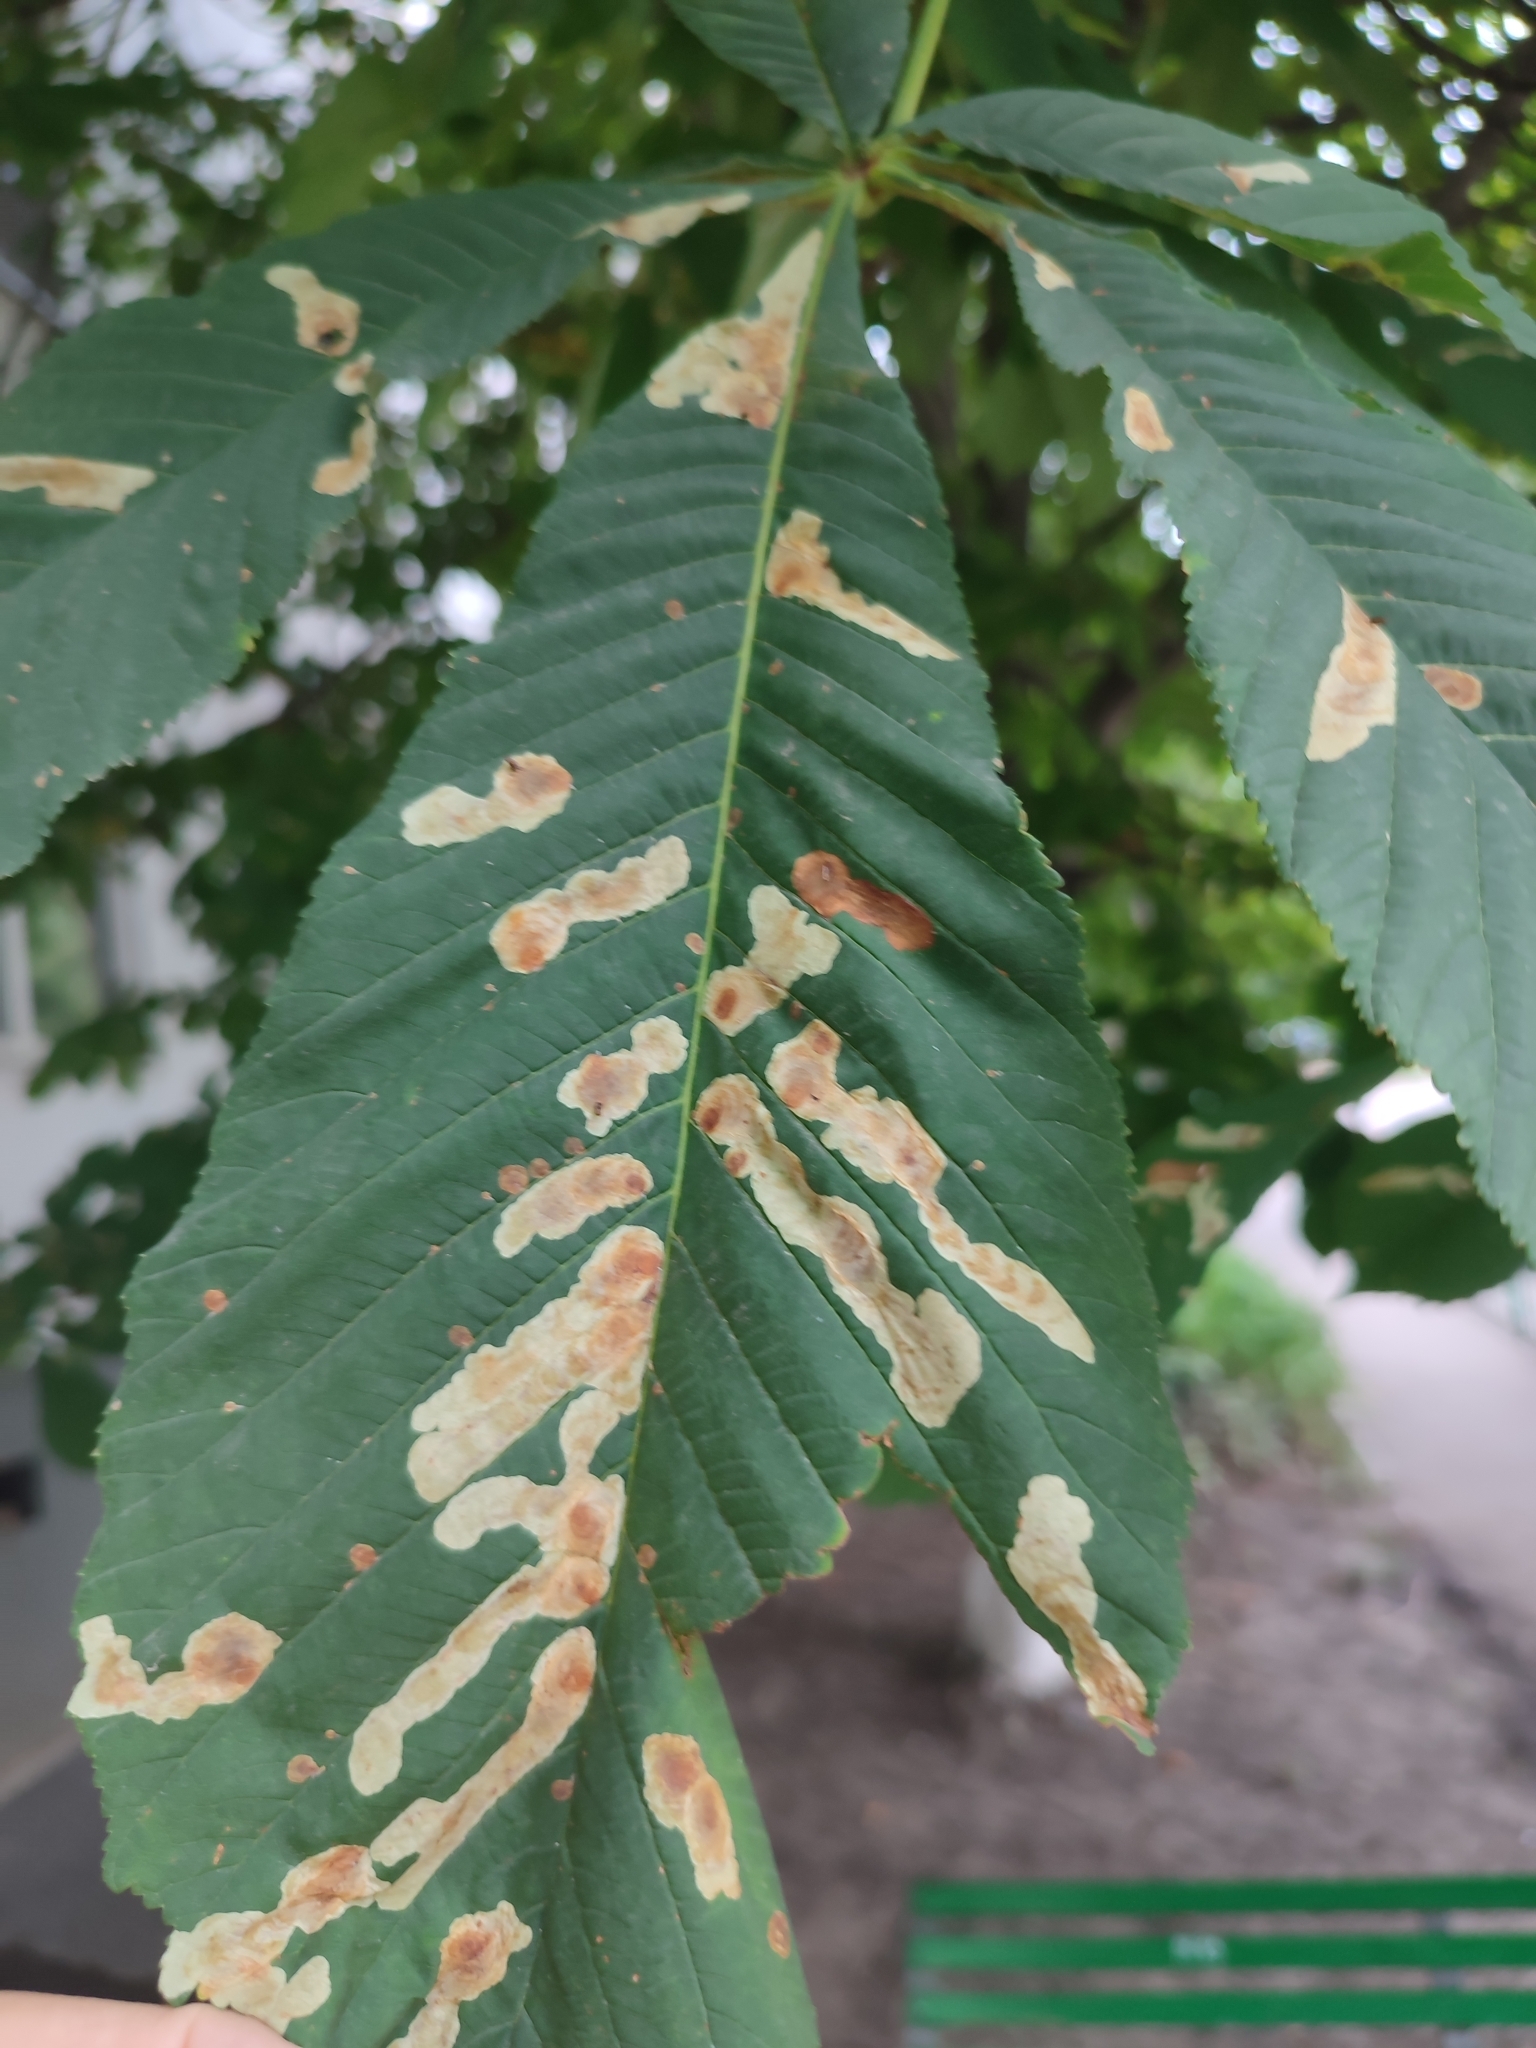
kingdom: Animalia
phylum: Arthropoda
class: Insecta
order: Lepidoptera
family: Gracillariidae
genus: Cameraria
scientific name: Cameraria ohridella
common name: Horse-chestnut leaf-miner
